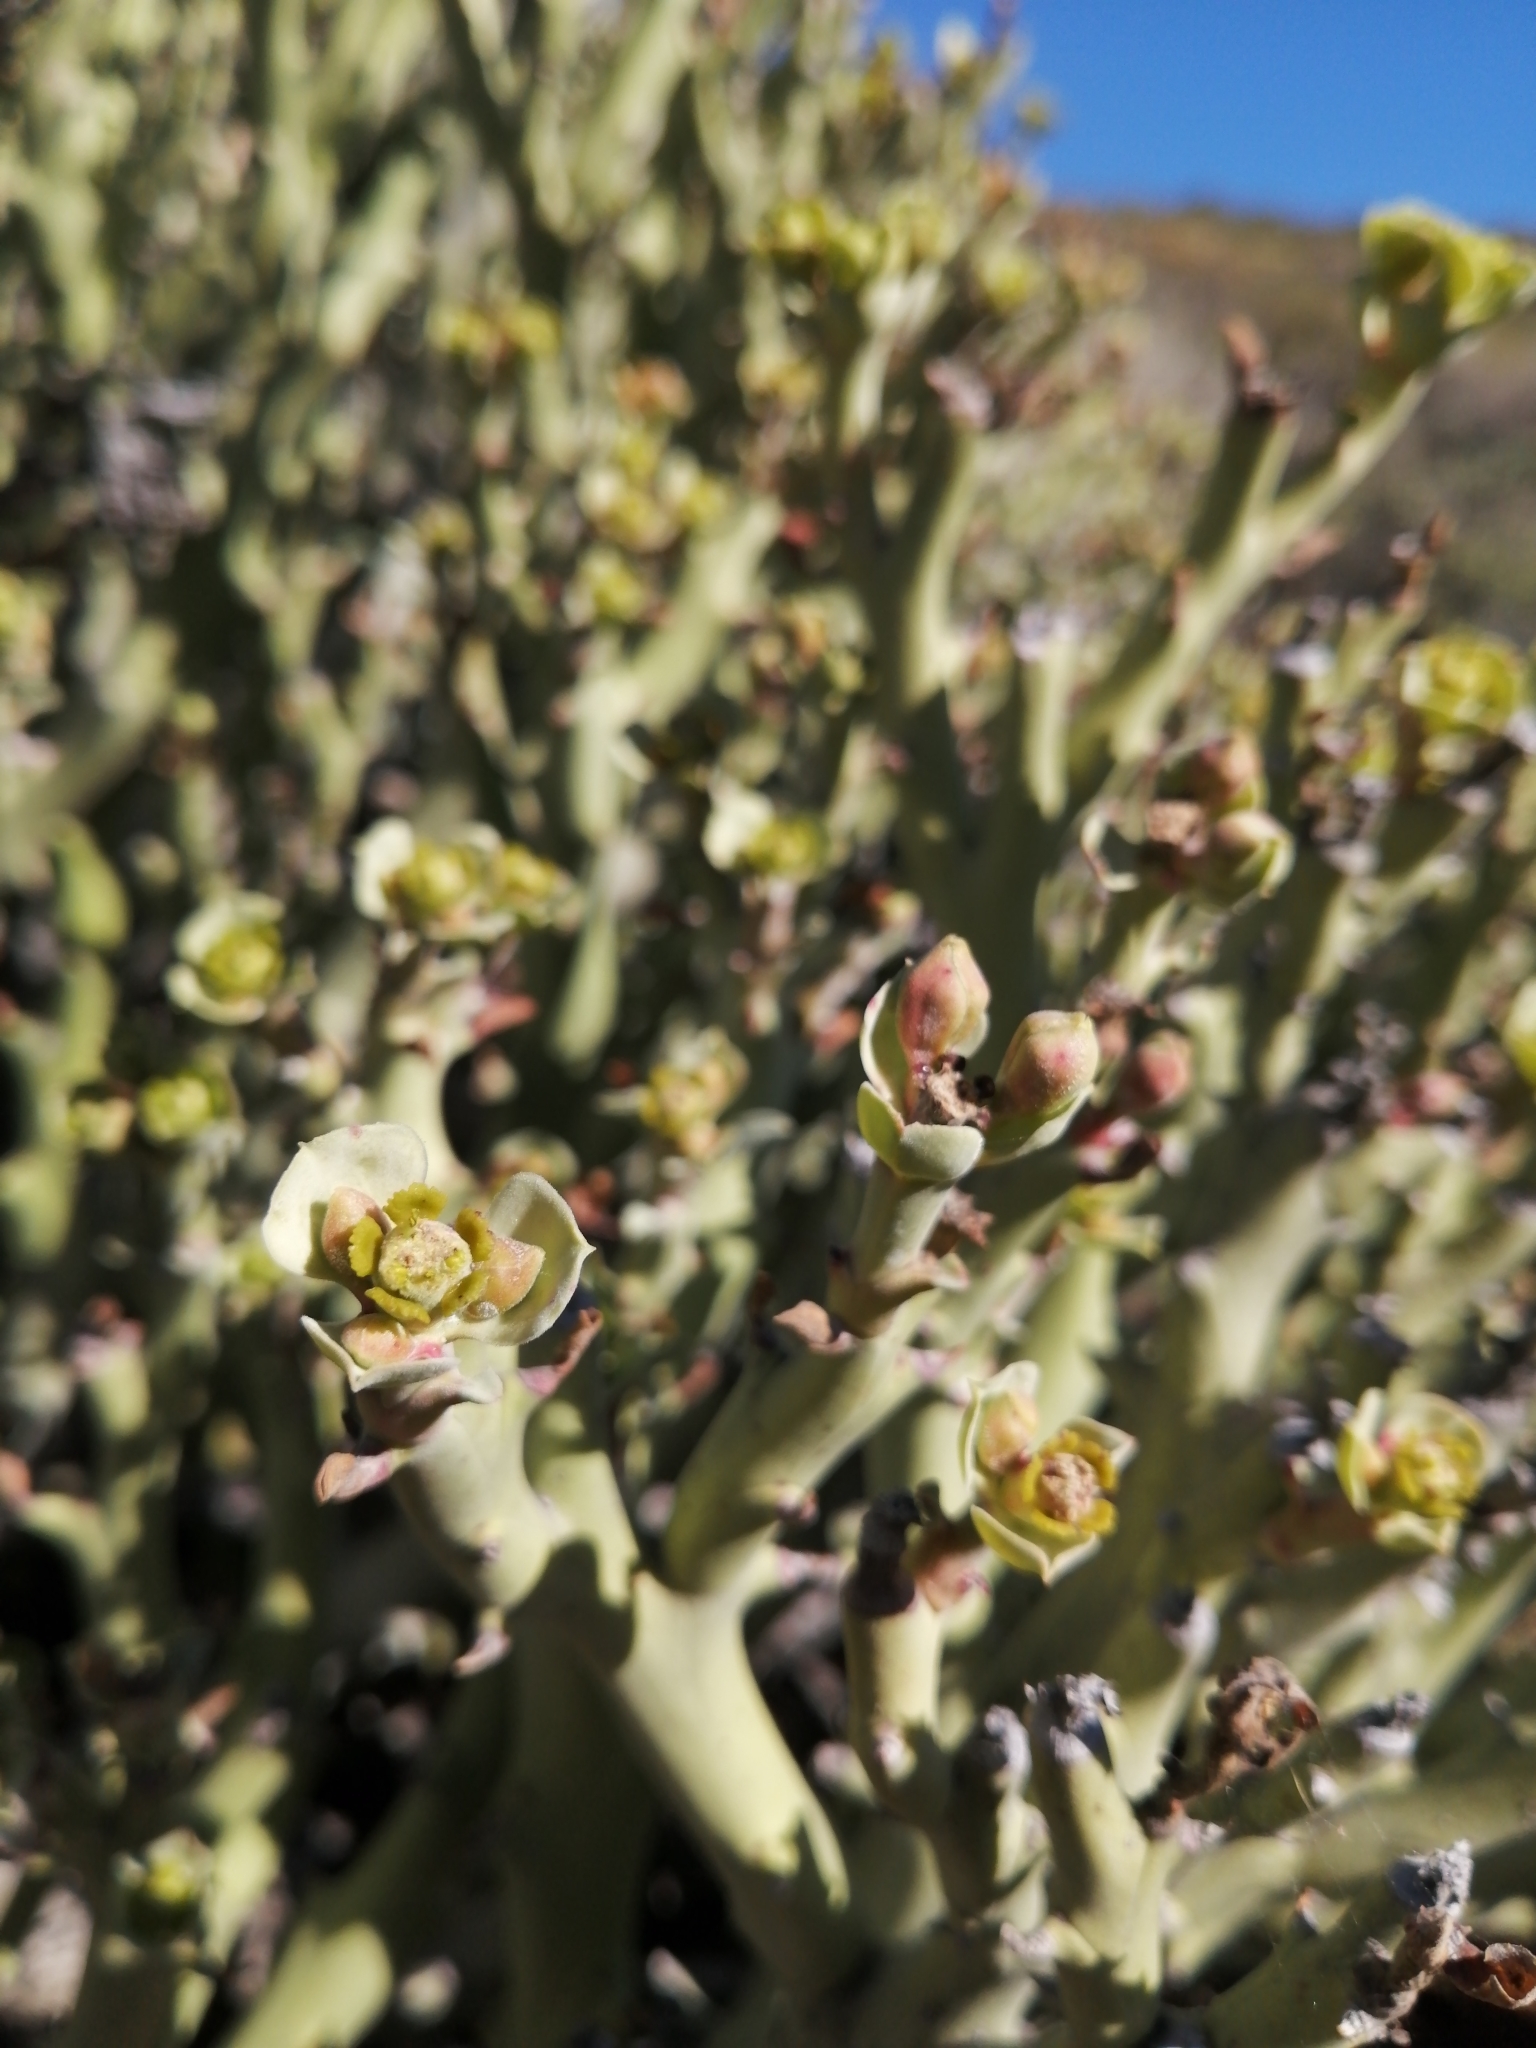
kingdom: Plantae
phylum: Tracheophyta
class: Magnoliopsida
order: Malpighiales
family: Euphorbiaceae
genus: Euphorbia
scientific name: Euphorbia hamata
